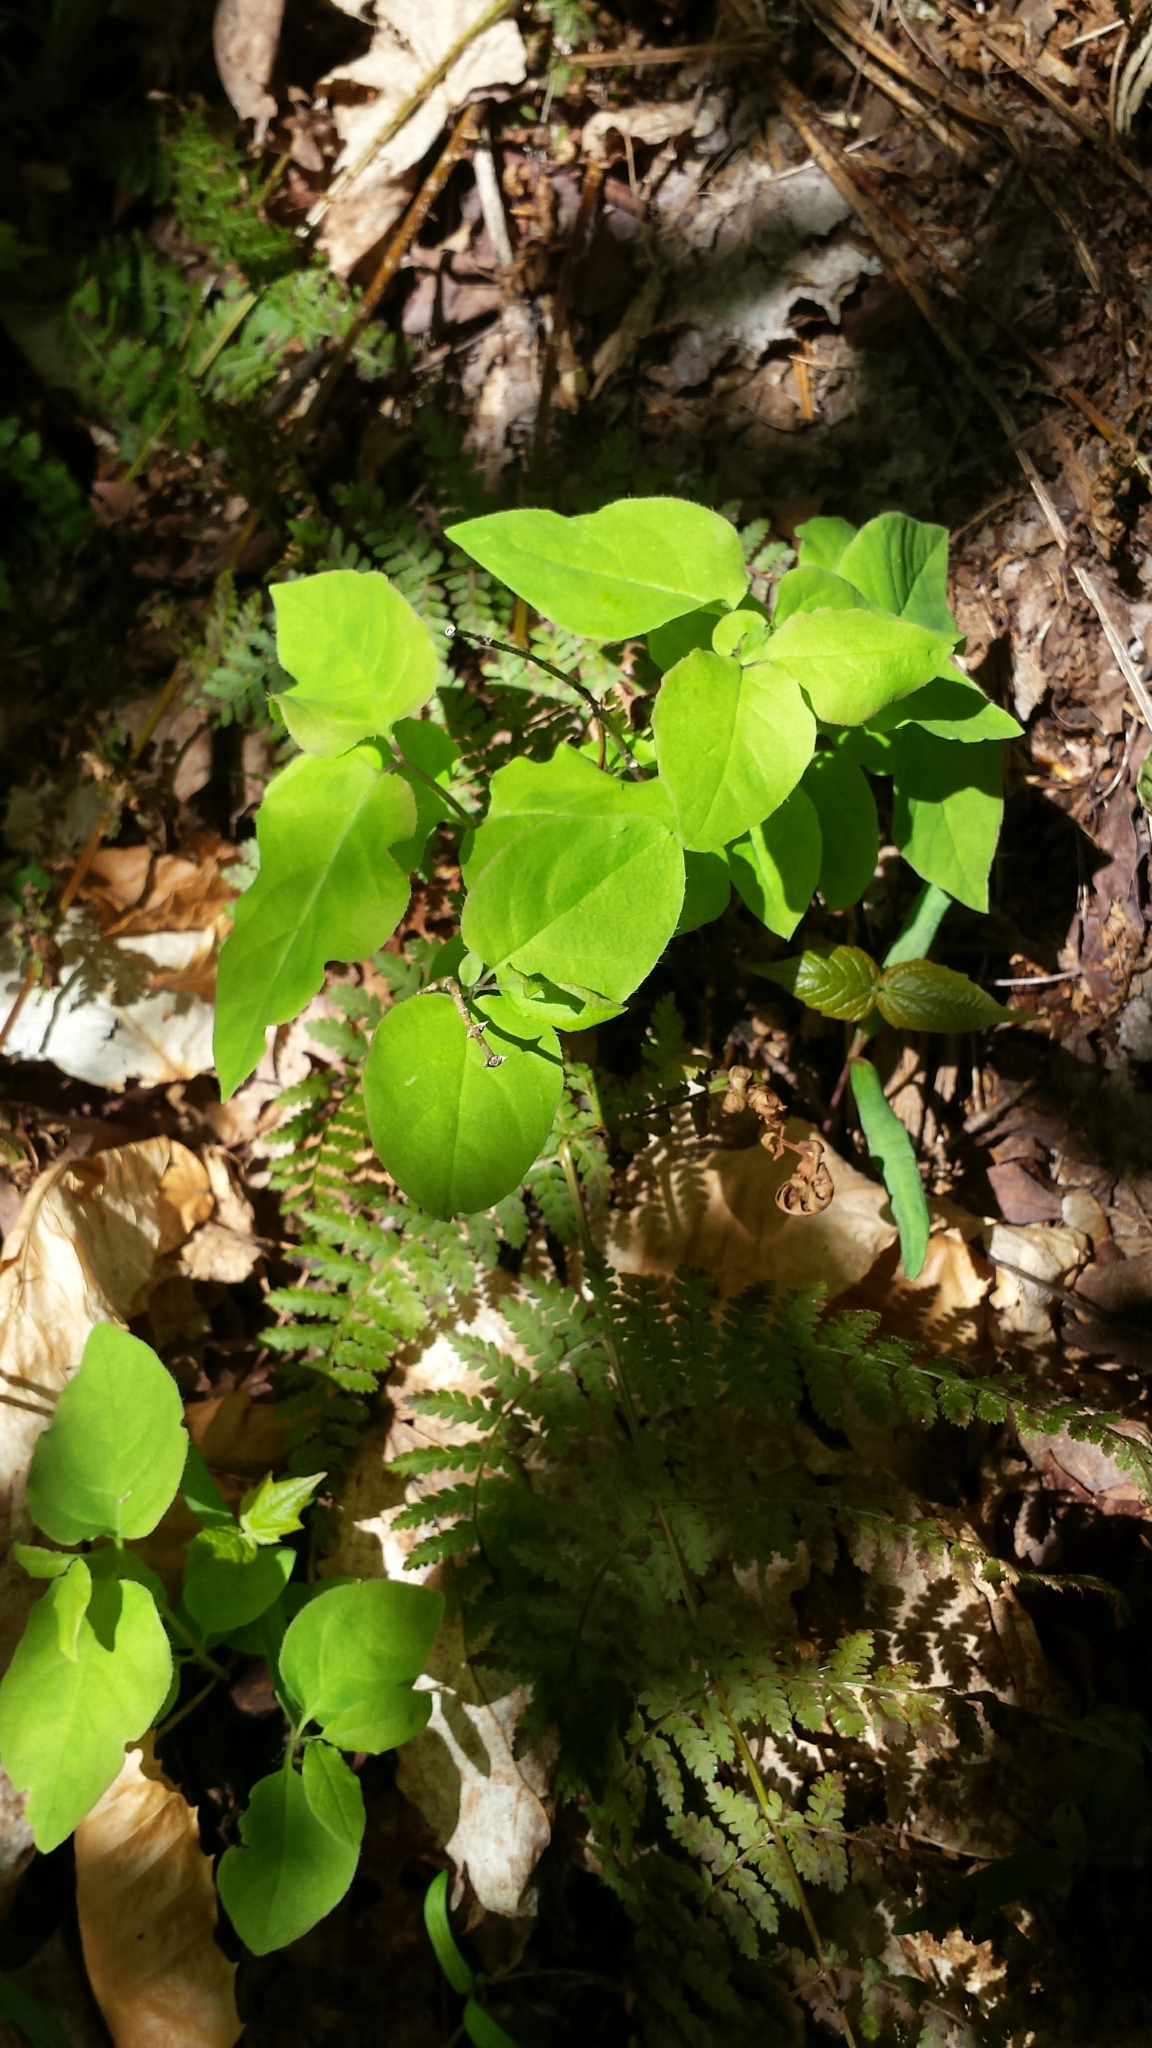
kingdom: Plantae
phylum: Tracheophyta
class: Magnoliopsida
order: Dipsacales
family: Caprifoliaceae
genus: Lonicera
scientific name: Lonicera canadensis
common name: American fly-honeysuckle
